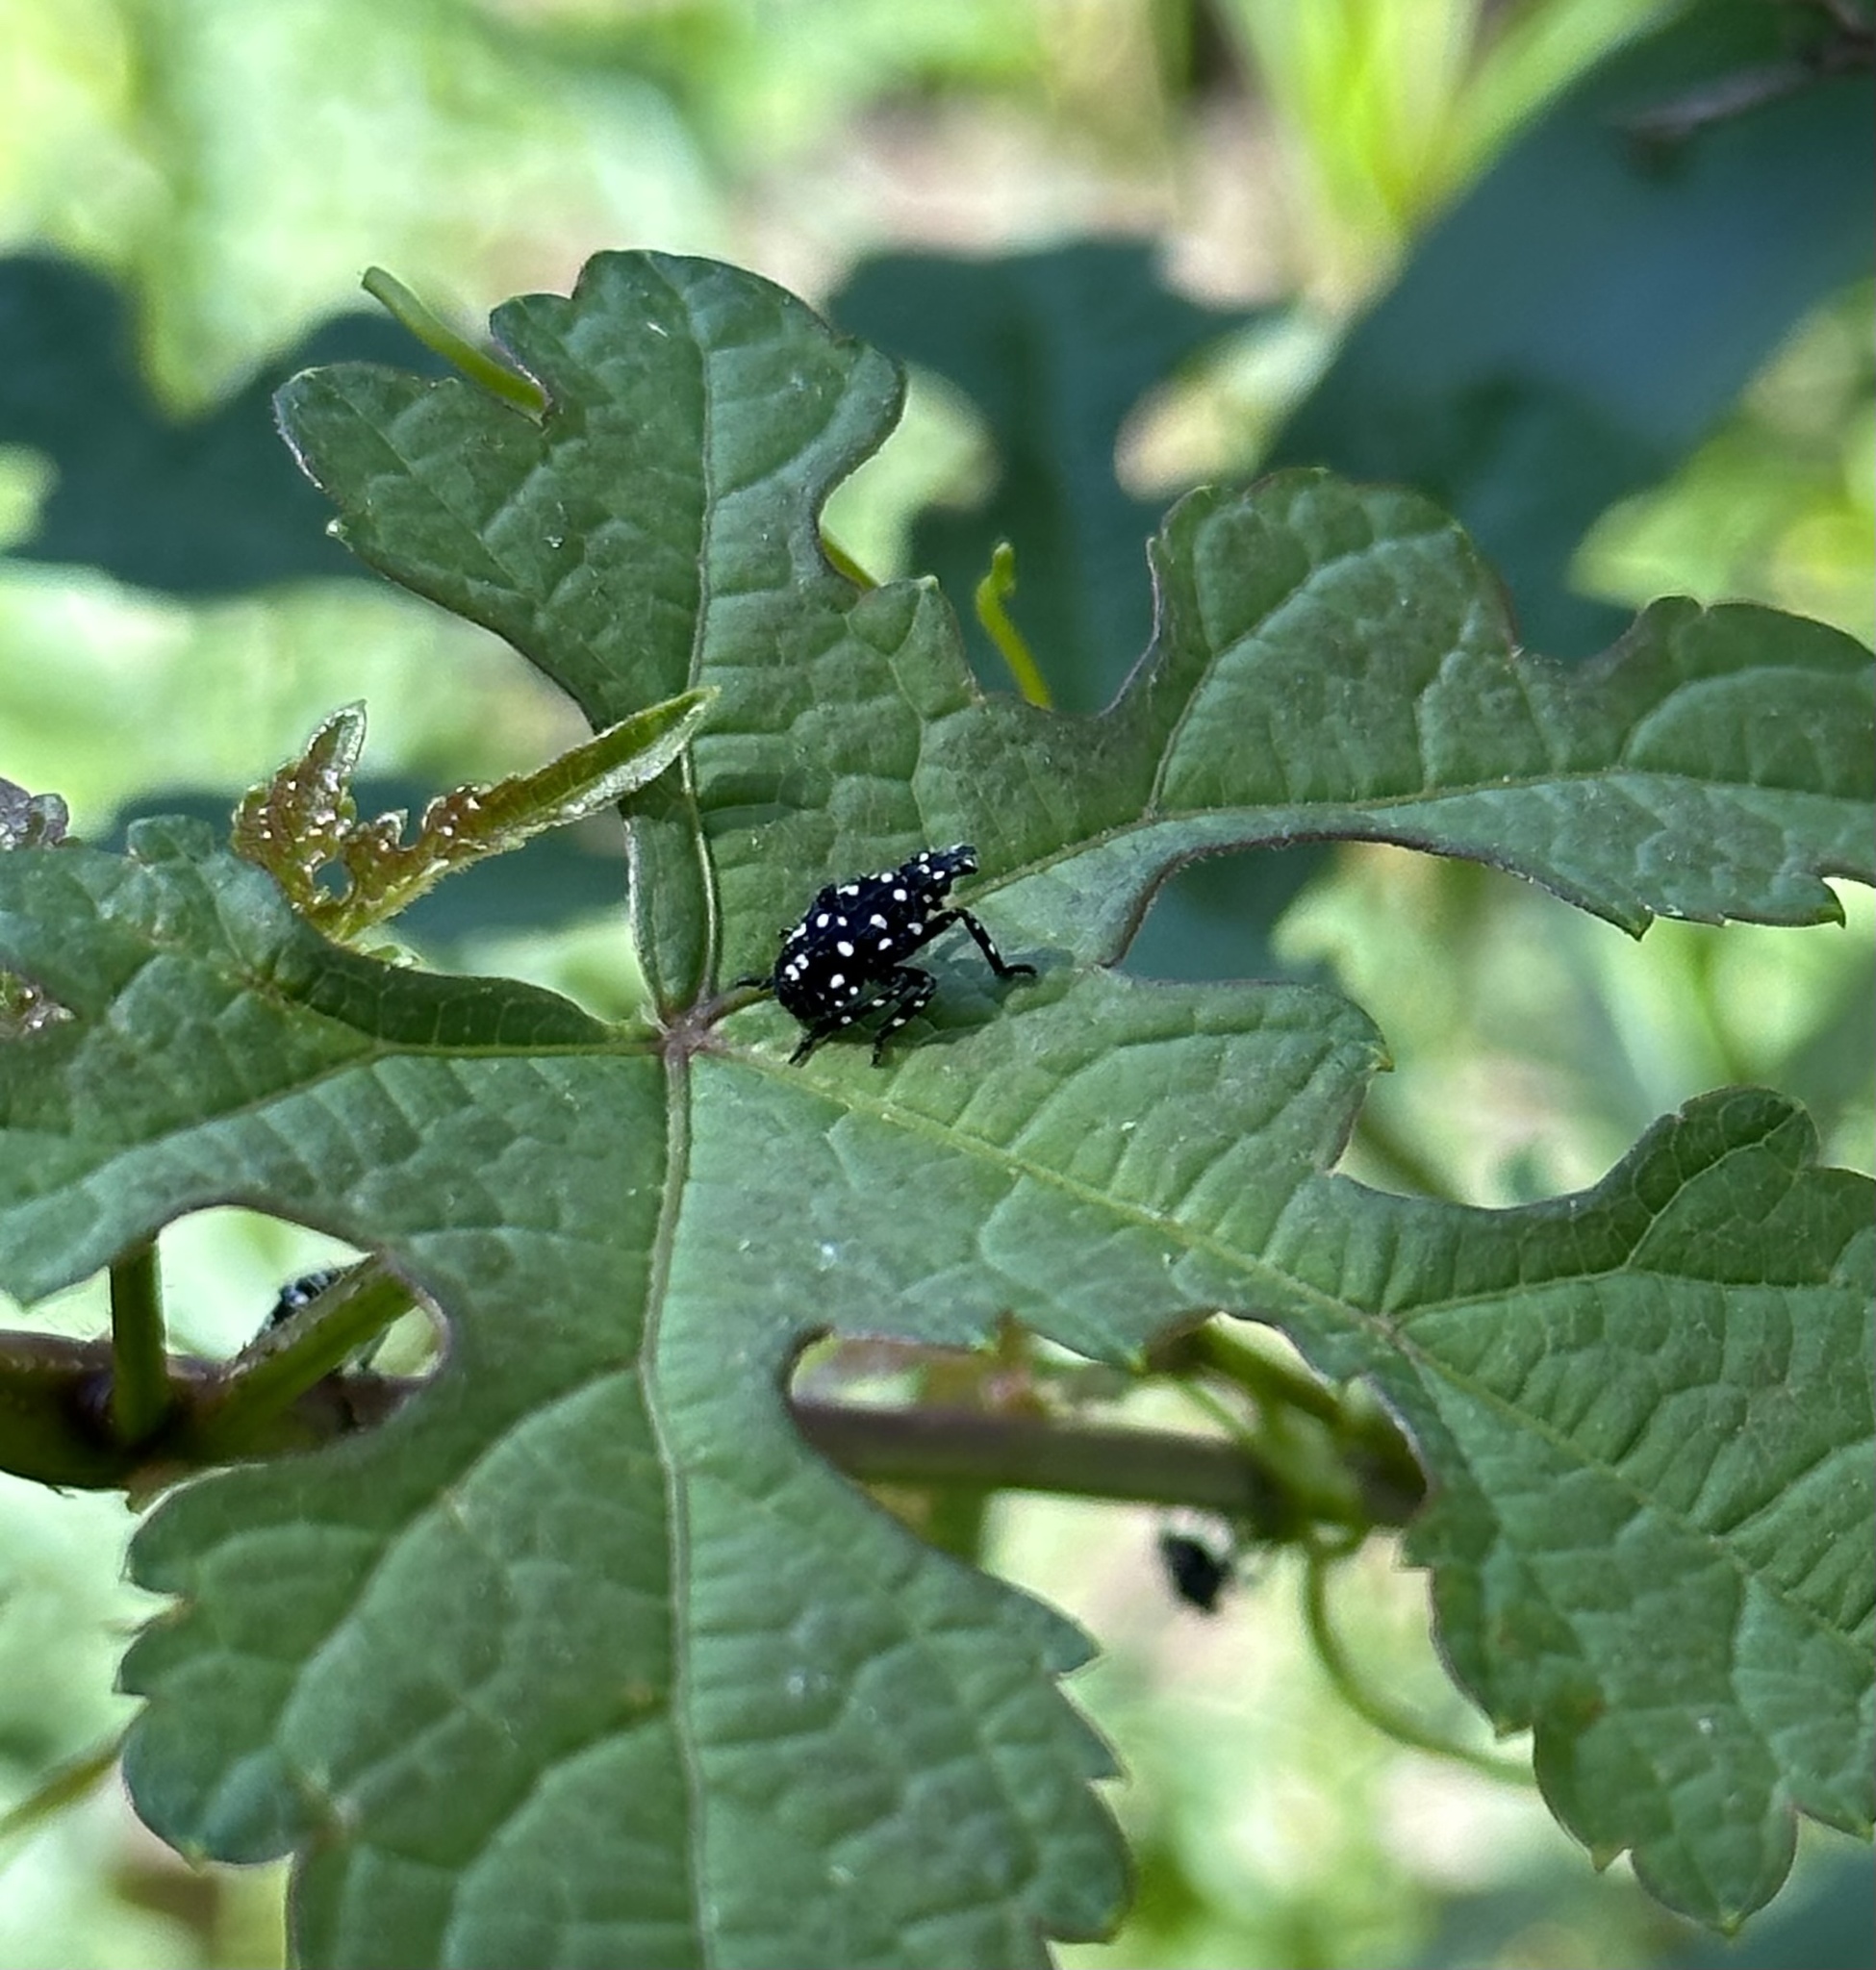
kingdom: Animalia
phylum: Arthropoda
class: Insecta
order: Hemiptera
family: Fulgoridae
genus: Lycorma
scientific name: Lycorma delicatula
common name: Spotted lanternfly
